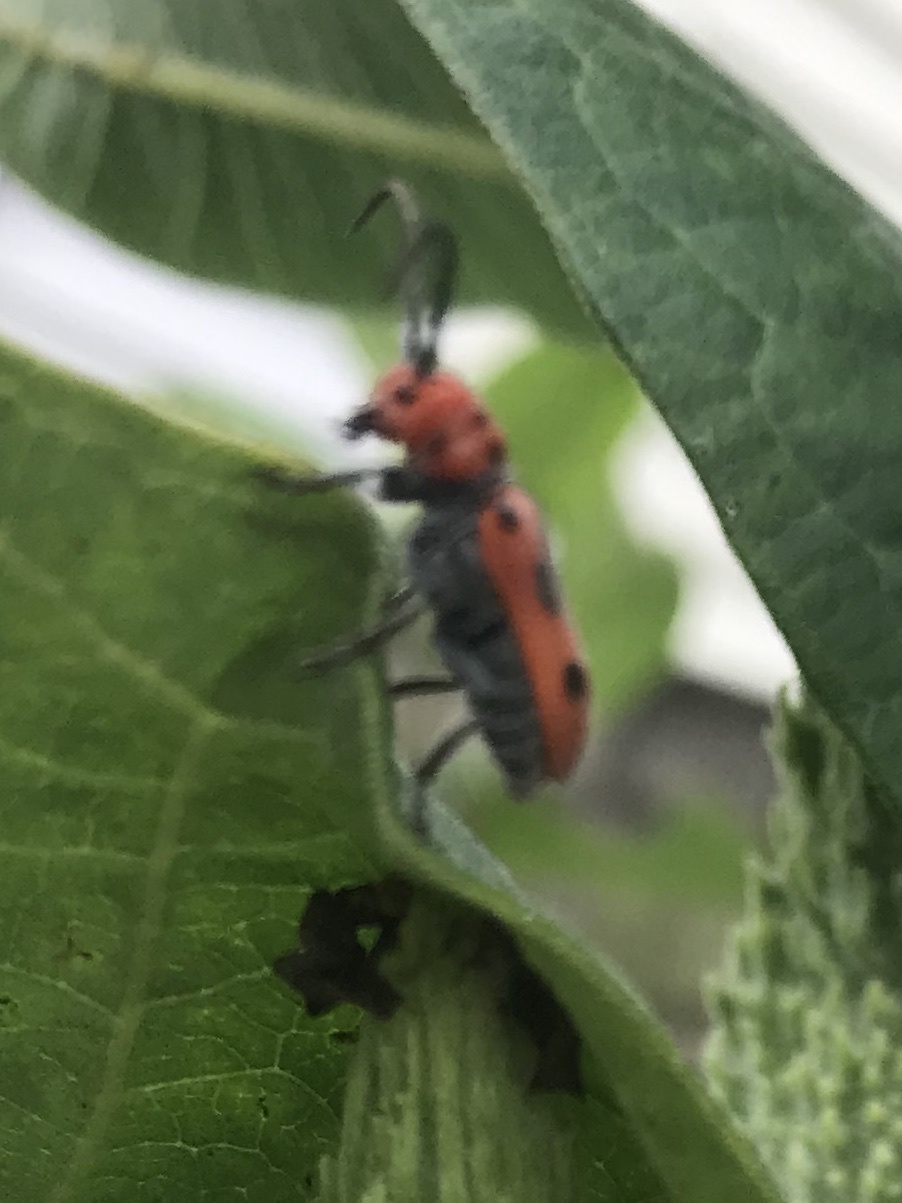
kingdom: Animalia
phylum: Arthropoda
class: Insecta
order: Coleoptera
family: Cerambycidae
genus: Tetraopes
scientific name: Tetraopes tetrophthalmus
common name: Red milkweed beetle
